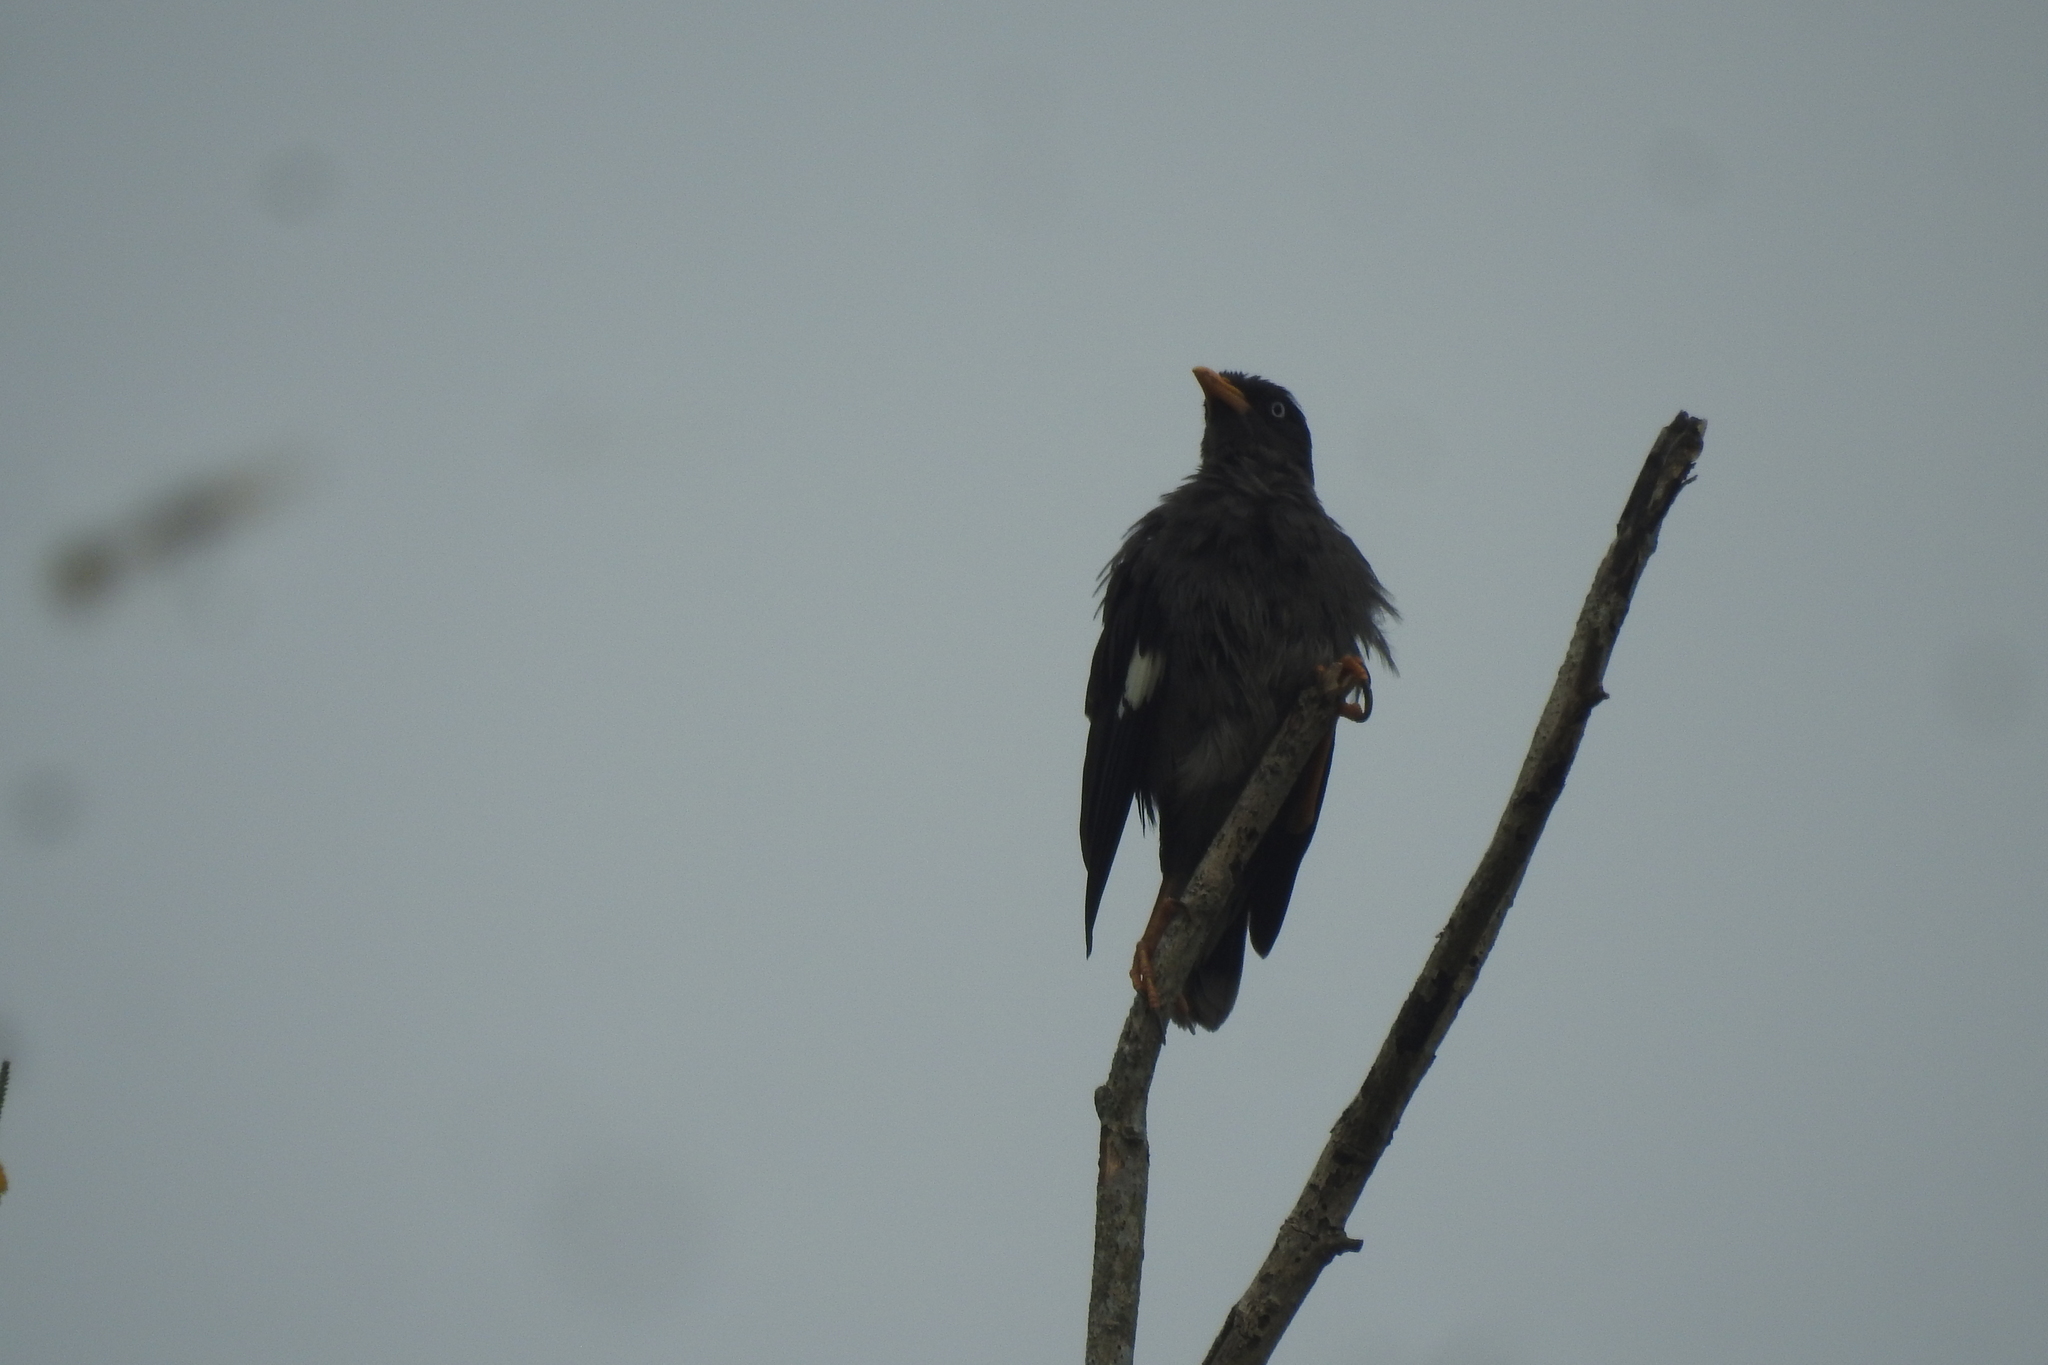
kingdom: Animalia
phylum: Chordata
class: Aves
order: Passeriformes
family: Sturnidae
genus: Acridotheres
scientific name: Acridotheres javanicus
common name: Javan myna
